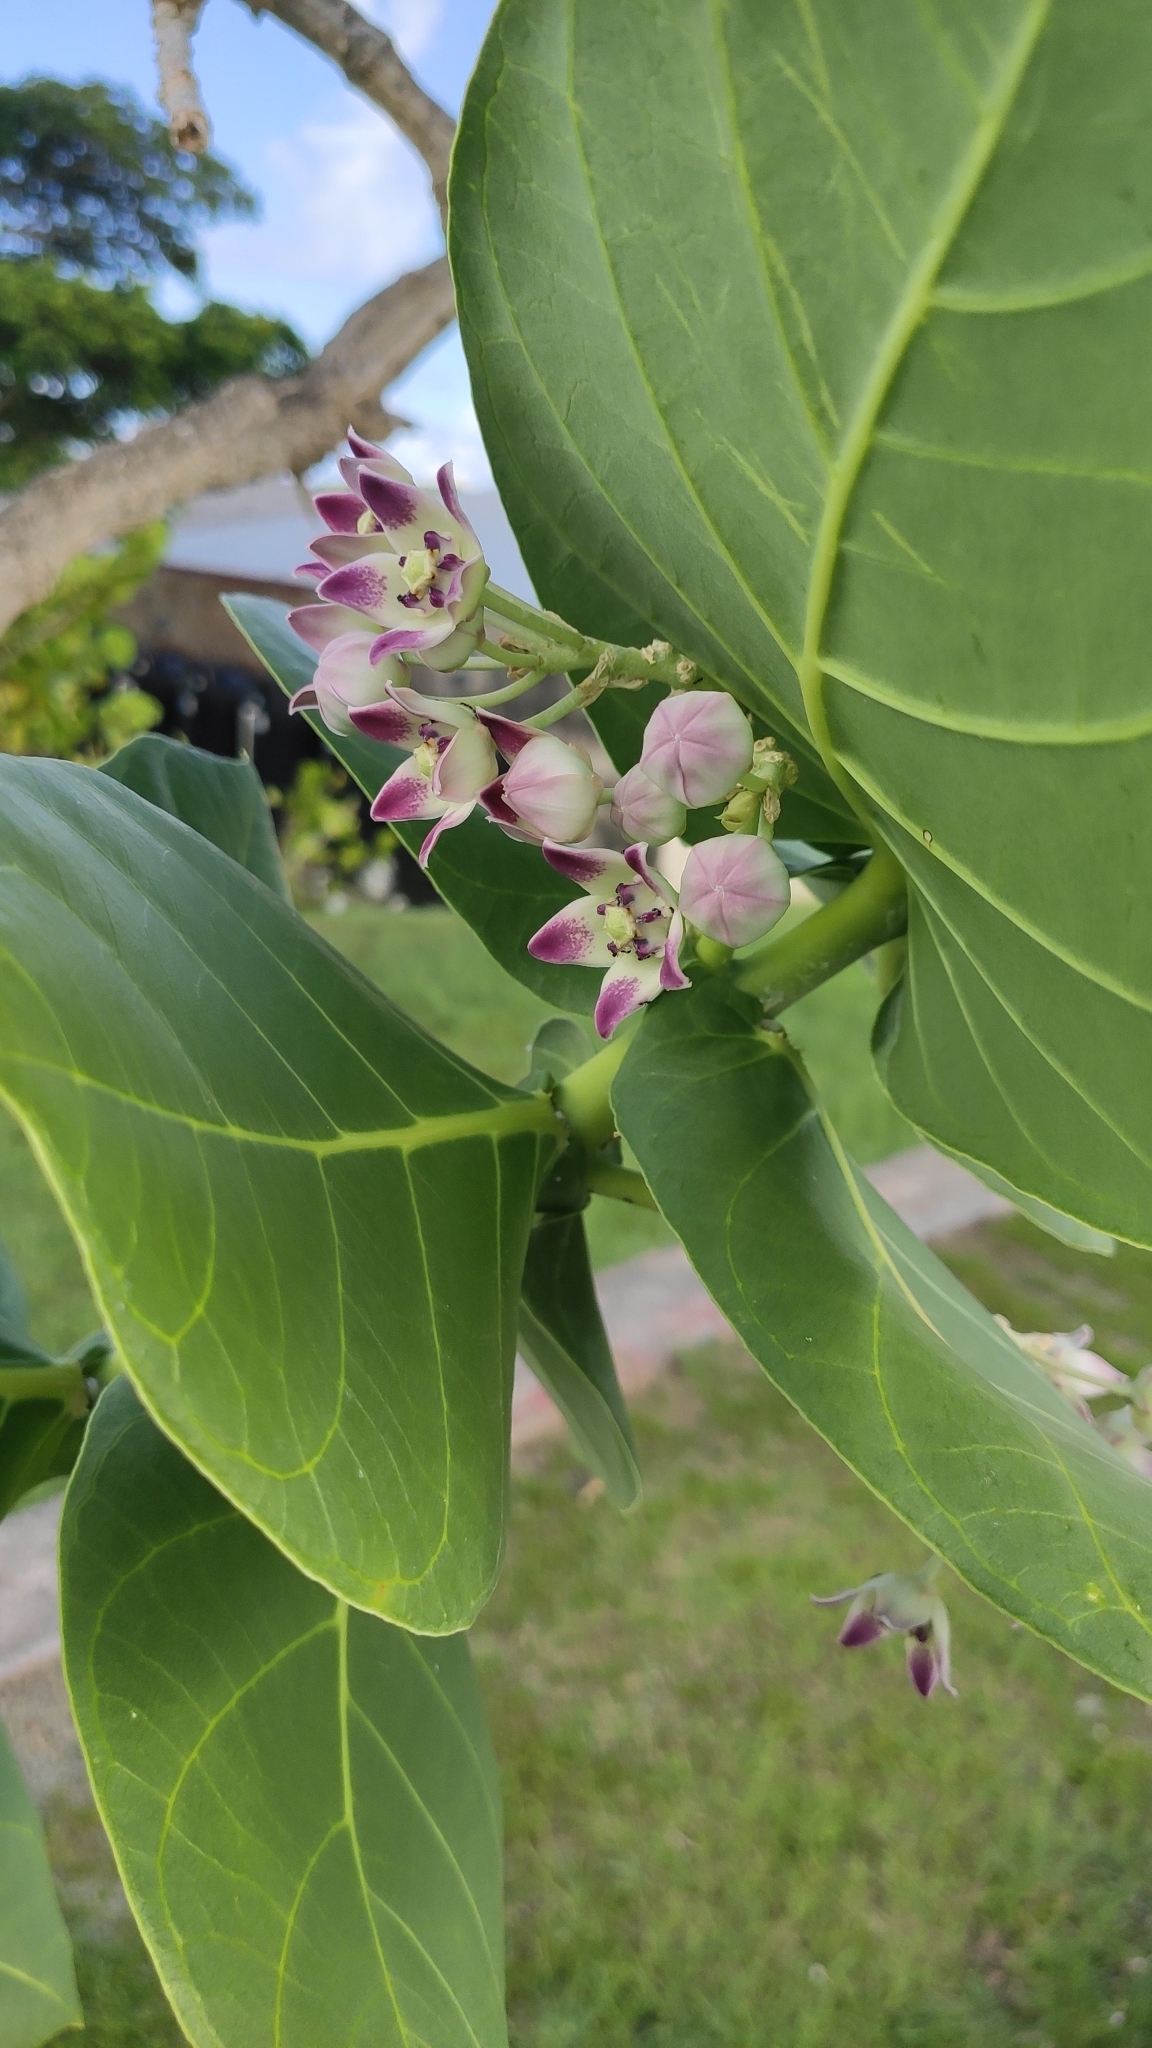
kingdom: Plantae
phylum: Tracheophyta
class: Magnoliopsida
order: Gentianales
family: Apocynaceae
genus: Calotropis
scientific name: Calotropis procera
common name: Roostertree
